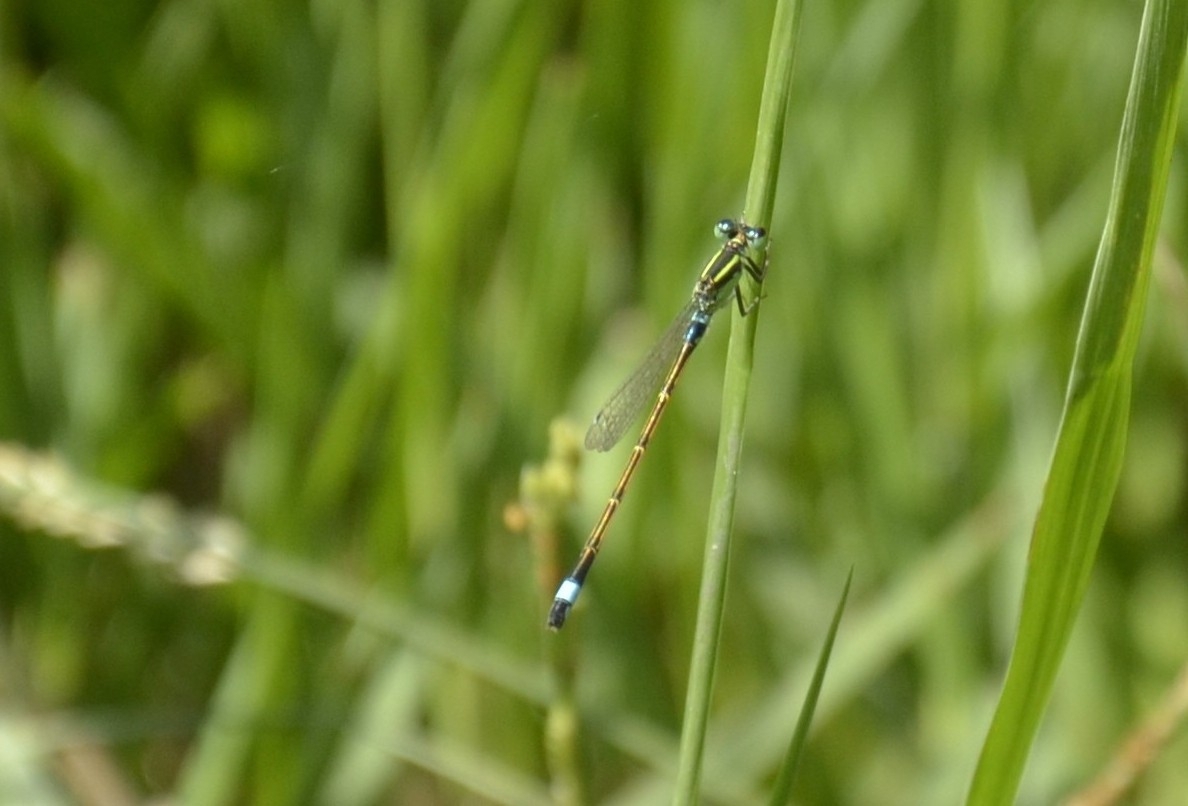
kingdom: Animalia
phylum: Arthropoda
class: Insecta
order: Odonata
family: Coenagrionidae
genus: Ischnura
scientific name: Ischnura senegalensis
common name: Tropical bluetail
